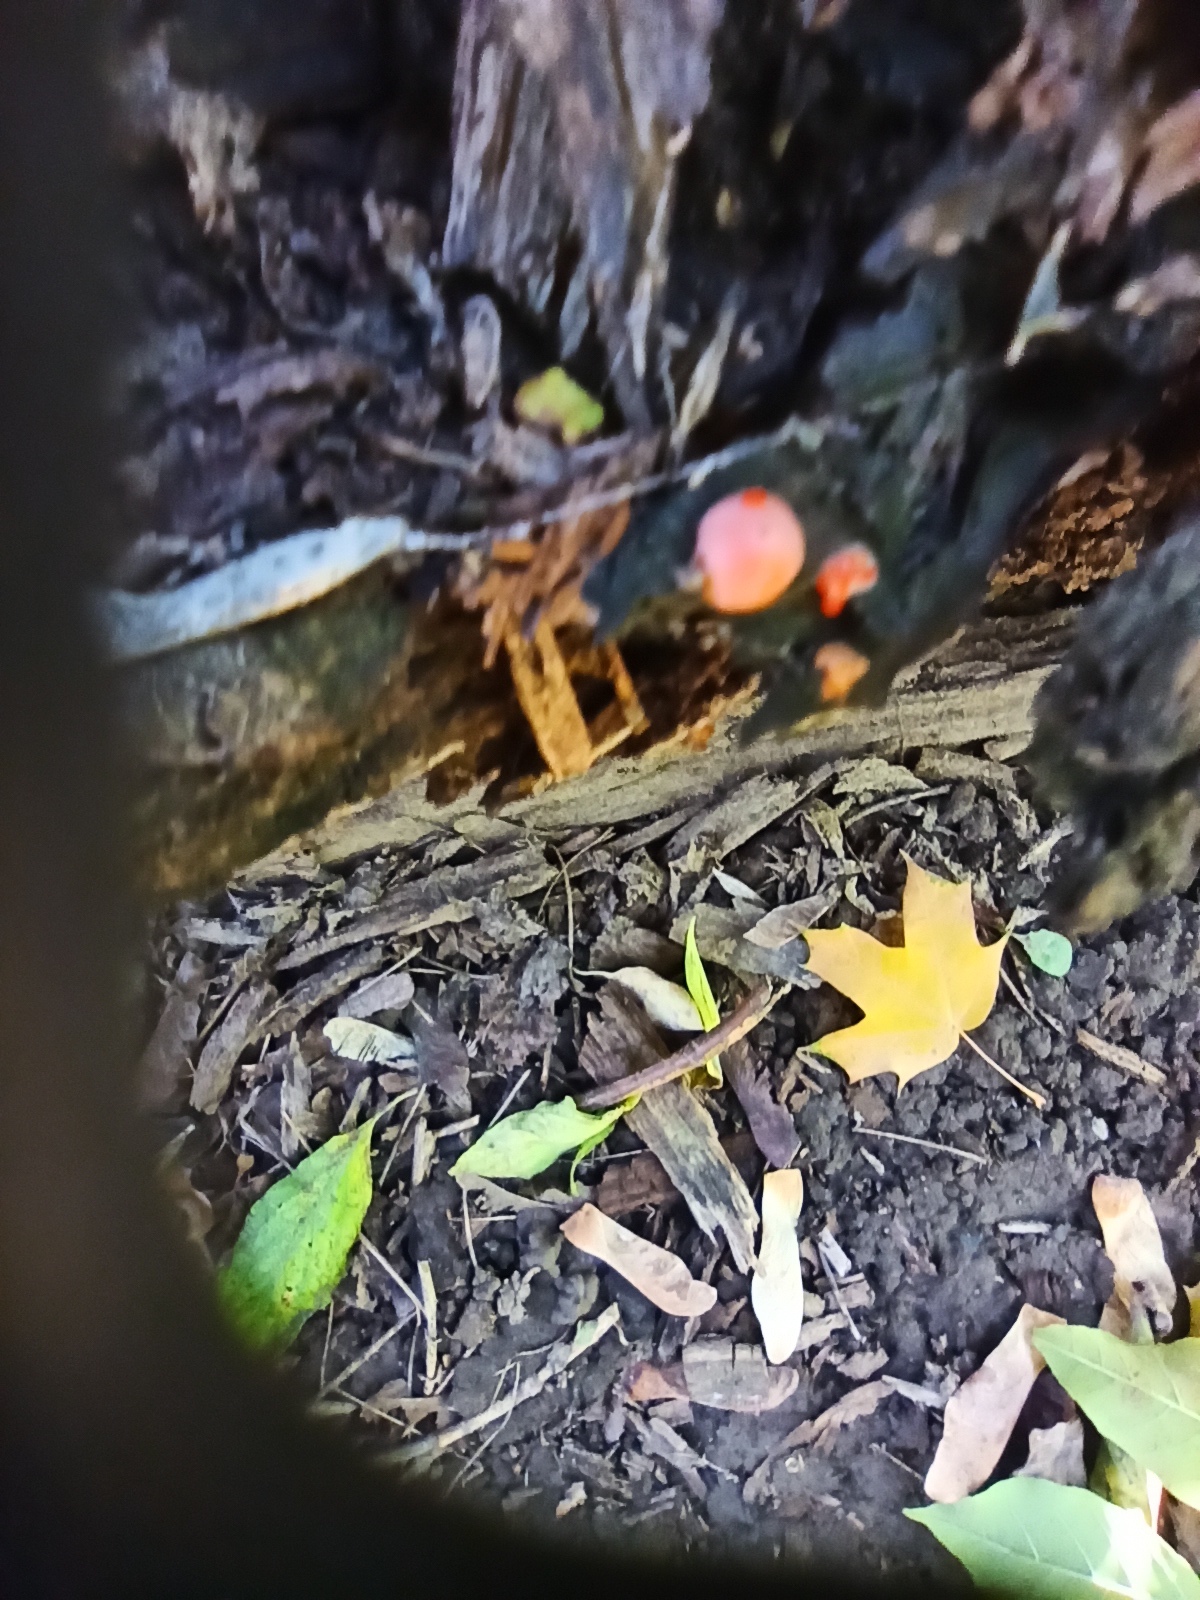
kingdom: Protozoa
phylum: Mycetozoa
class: Myxomycetes
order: Cribrariales
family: Tubiferaceae
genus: Lycogala
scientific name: Lycogala epidendrum
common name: Wolf's milk
